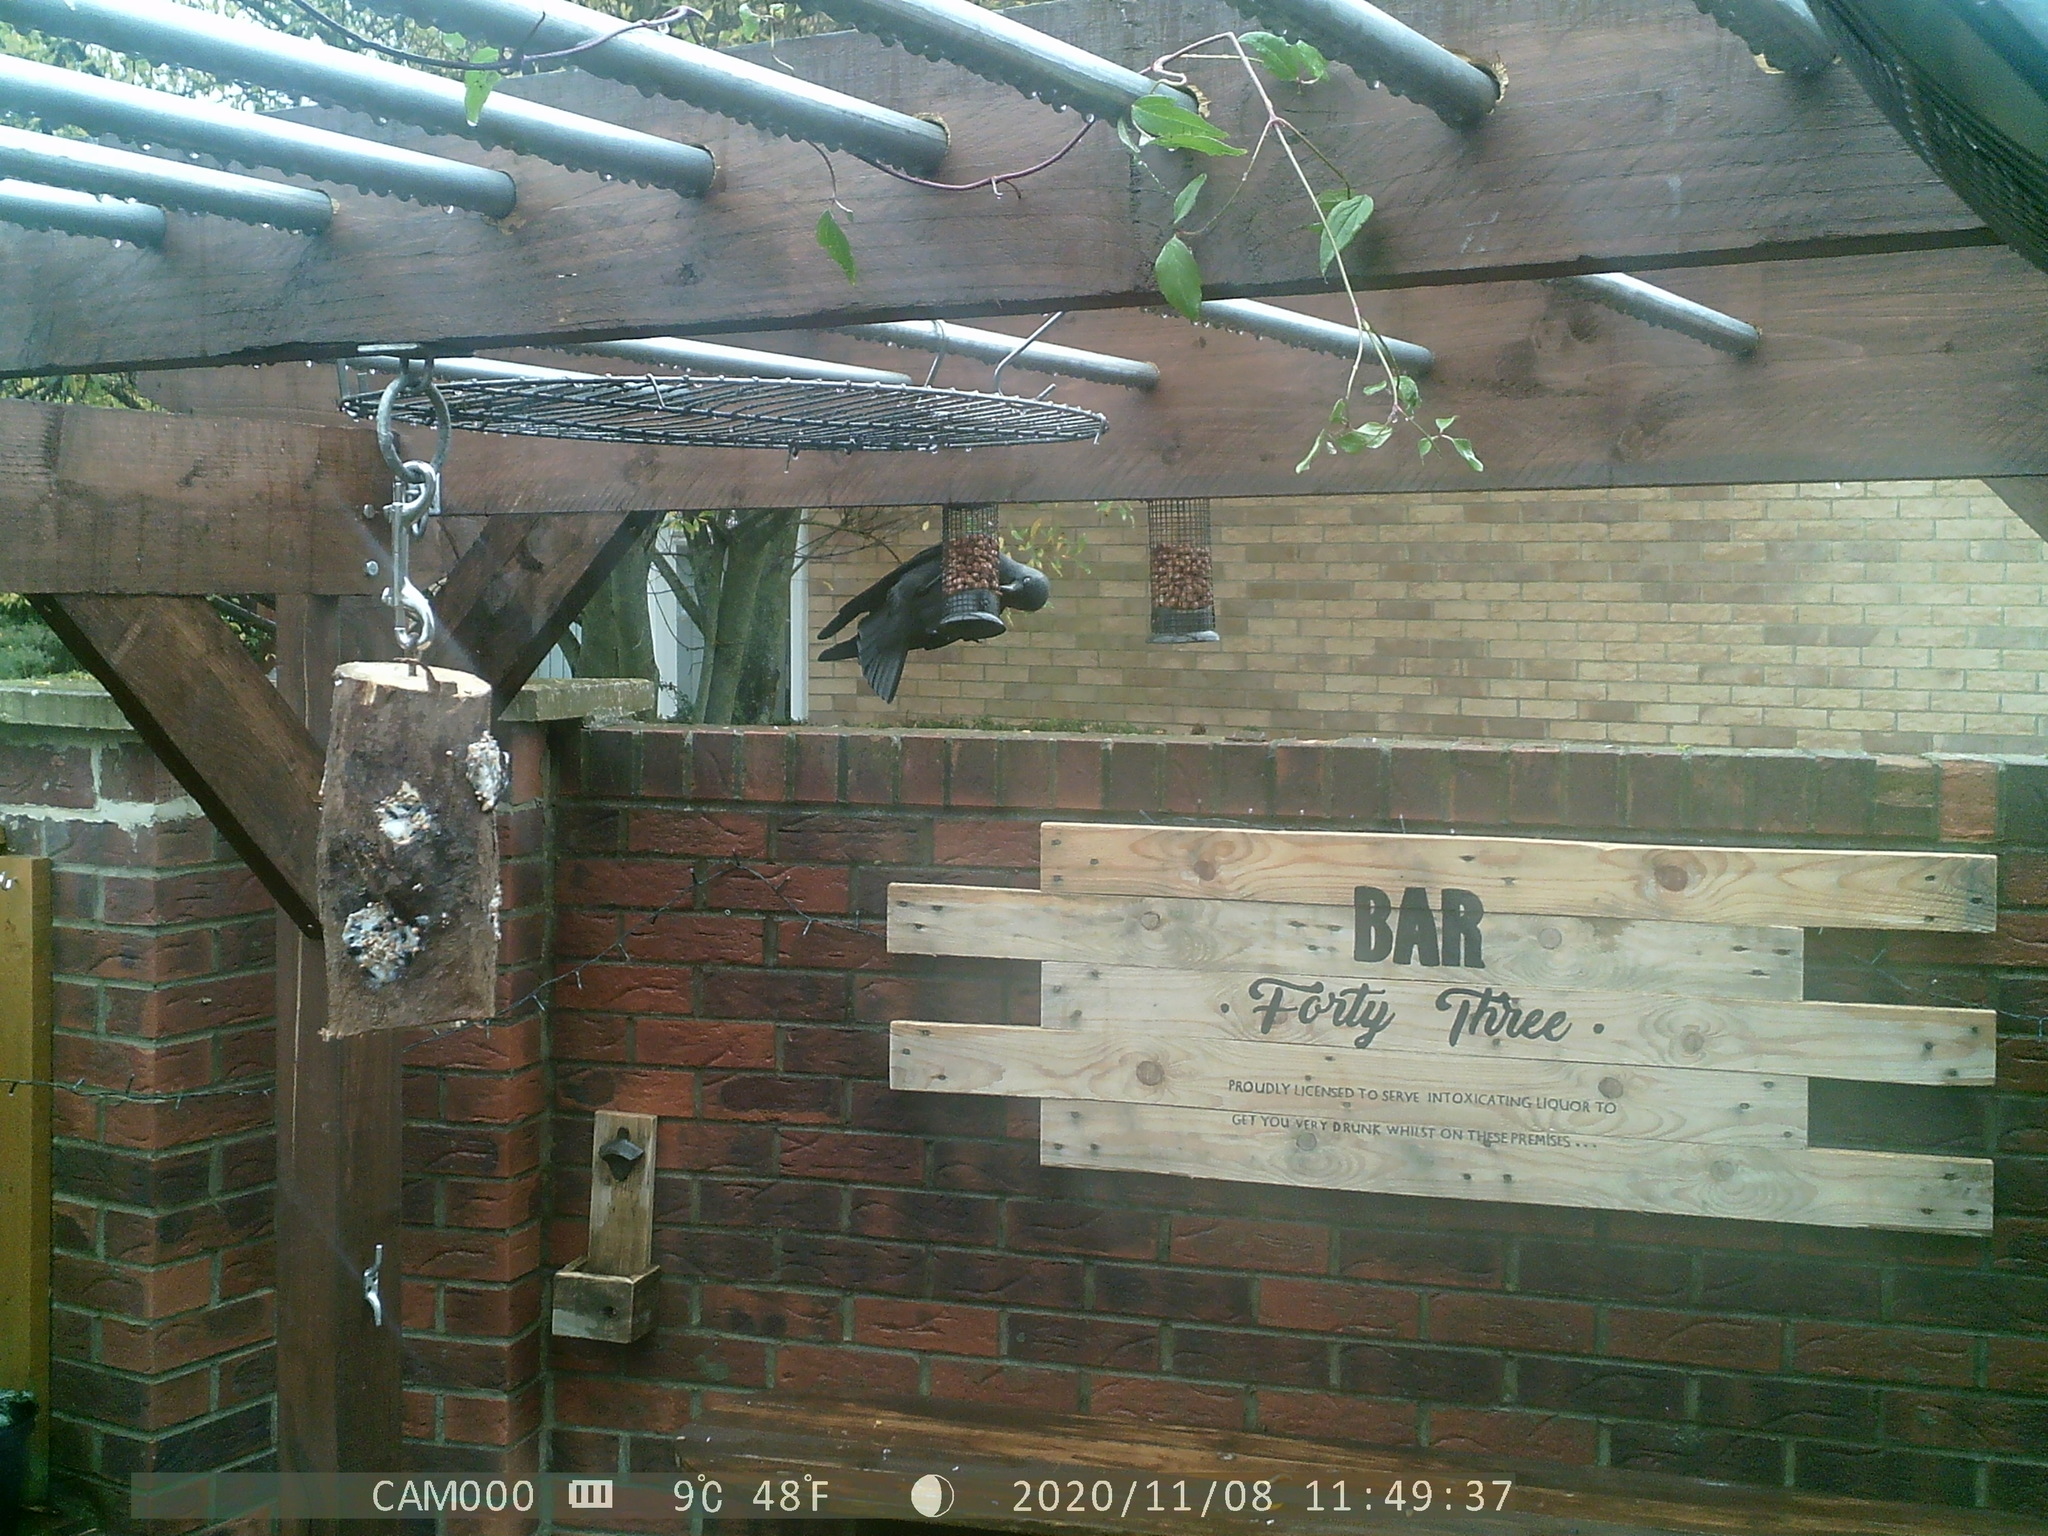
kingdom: Animalia
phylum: Chordata
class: Aves
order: Passeriformes
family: Corvidae
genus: Coloeus
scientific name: Coloeus monedula
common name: Western jackdaw
